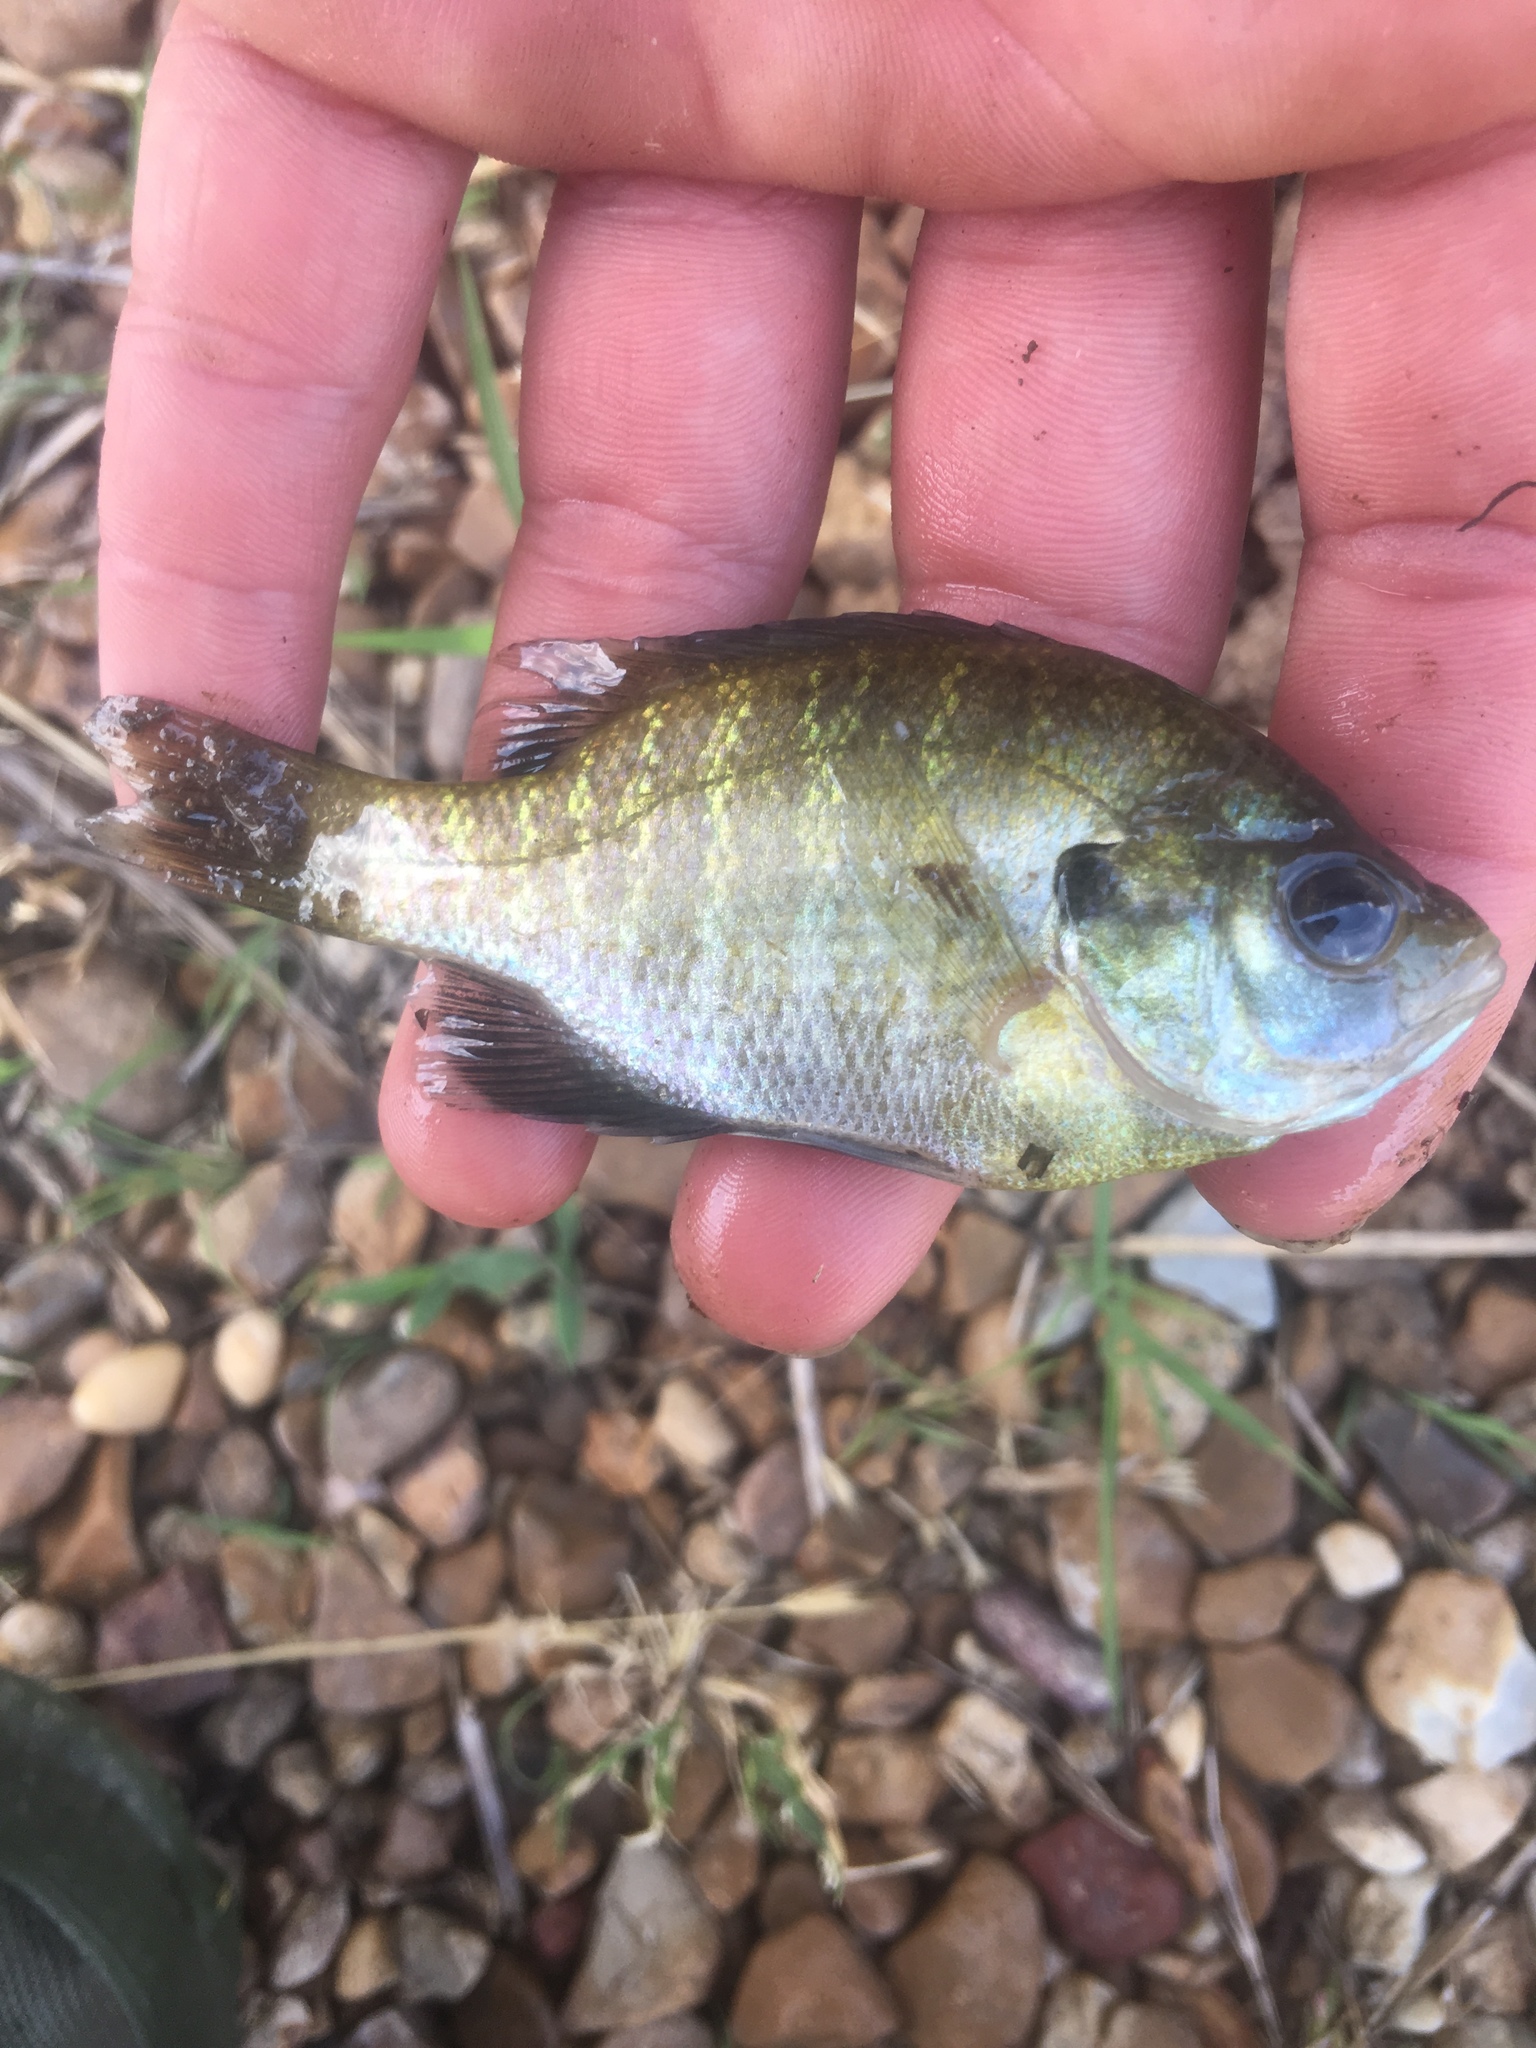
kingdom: Animalia
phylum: Chordata
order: Perciformes
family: Centrarchidae
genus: Lepomis
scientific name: Lepomis macrochirus
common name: Bluegill
